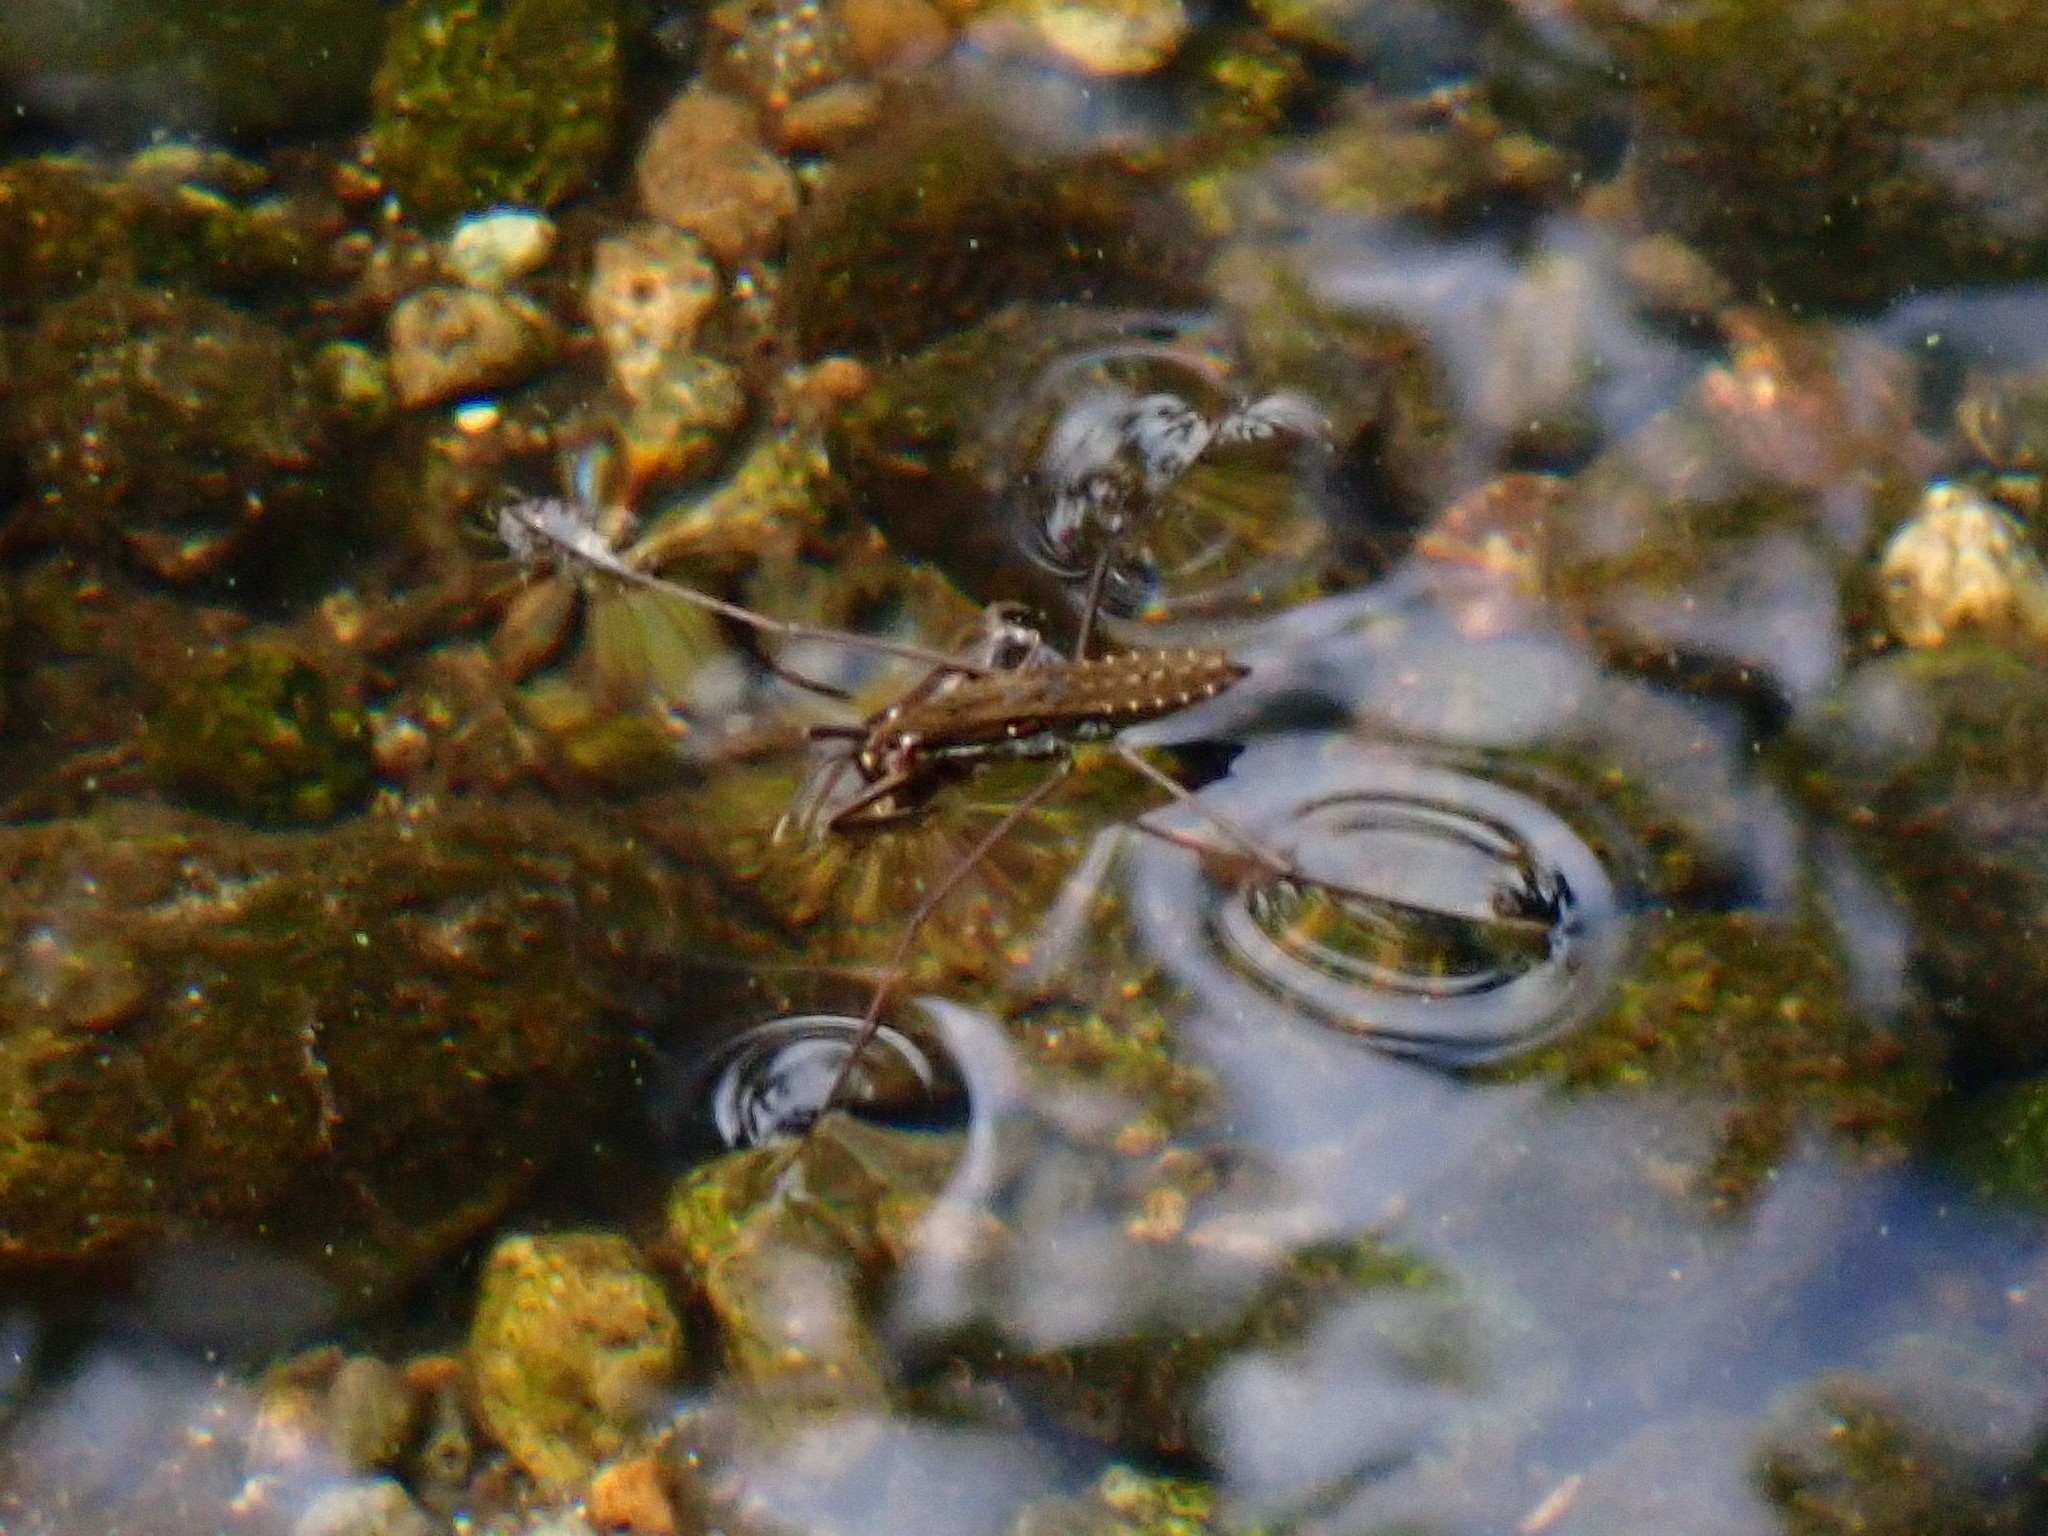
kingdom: Animalia
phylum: Arthropoda
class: Insecta
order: Hemiptera
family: Gerridae
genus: Aquarius
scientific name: Aquarius remigis
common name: Common water strider
